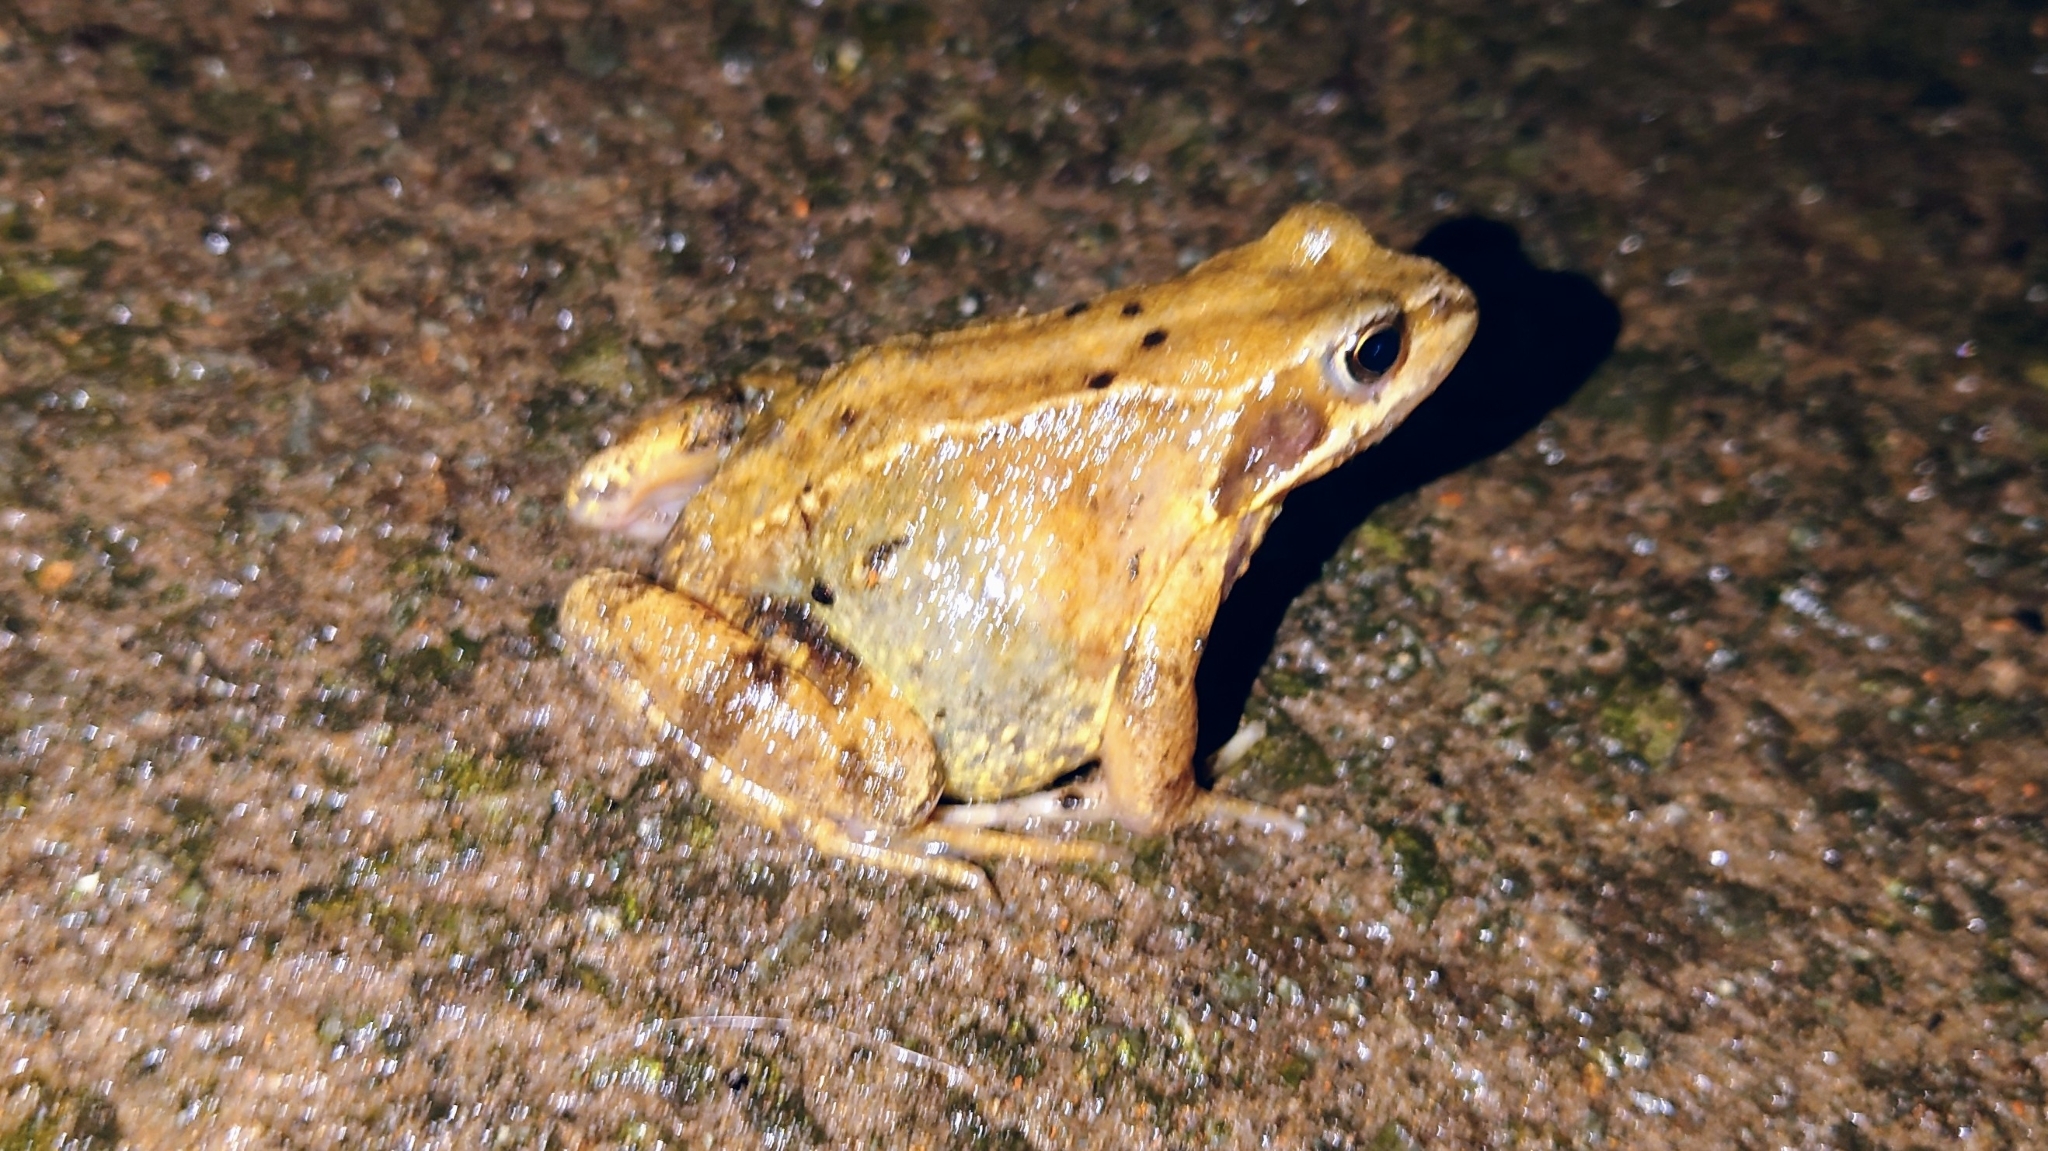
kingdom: Animalia
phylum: Chordata
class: Amphibia
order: Anura
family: Ranidae
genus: Rana
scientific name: Rana temporaria
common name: Common frog
